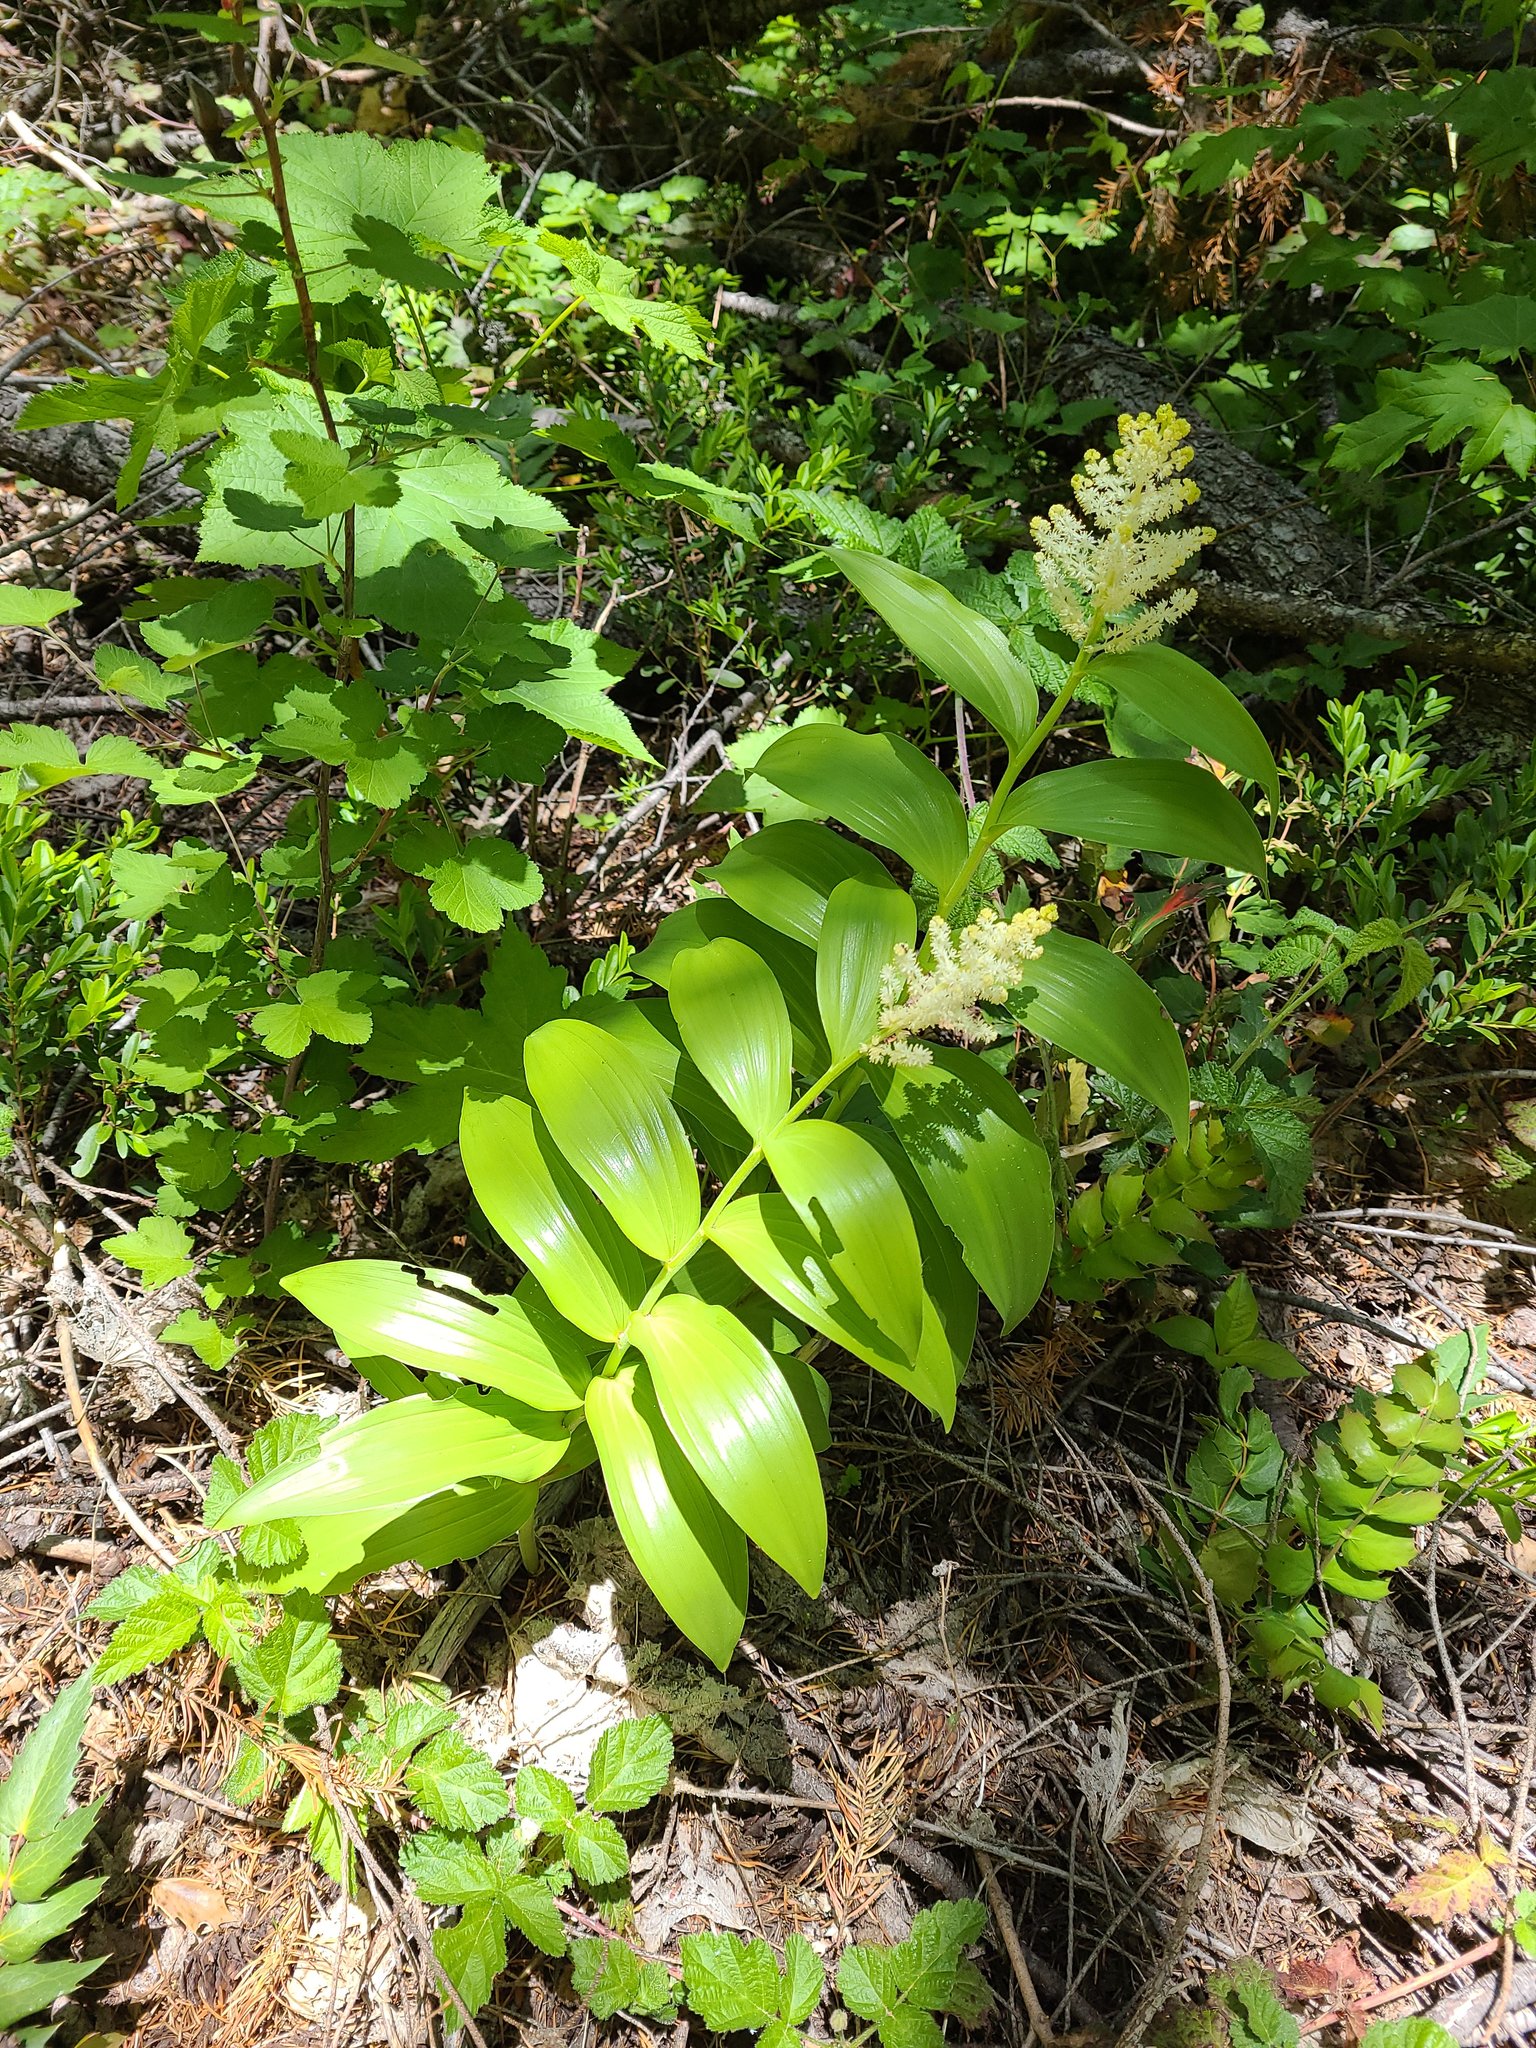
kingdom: Plantae
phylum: Tracheophyta
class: Liliopsida
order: Asparagales
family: Asparagaceae
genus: Maianthemum
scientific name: Maianthemum racemosum
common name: False spikenard
